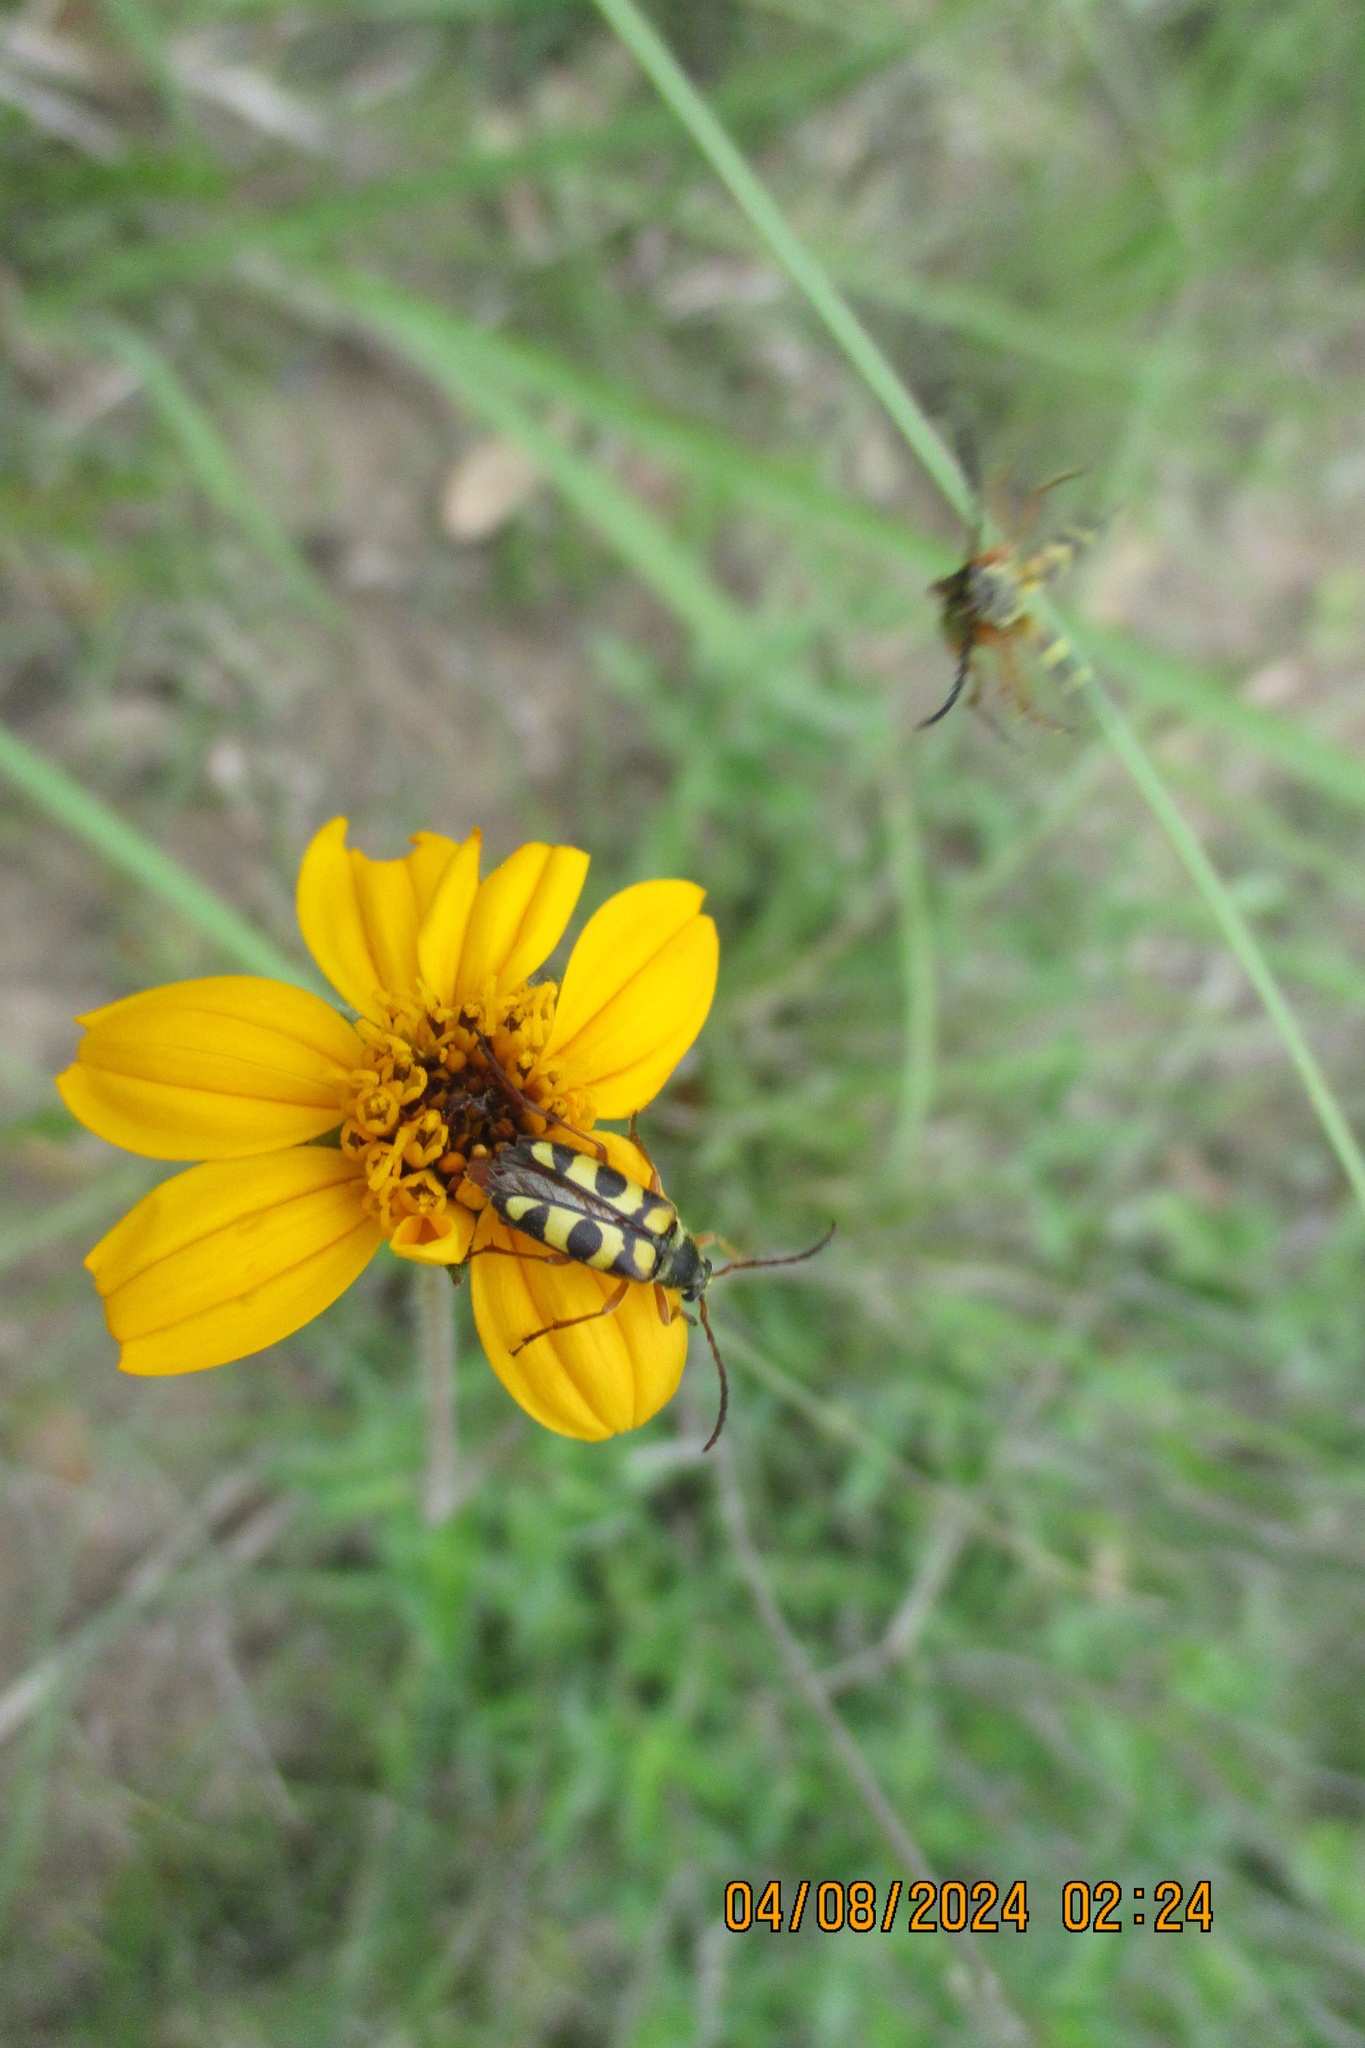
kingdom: Animalia
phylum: Arthropoda
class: Insecta
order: Coleoptera
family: Cerambycidae
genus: Typocerus
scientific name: Typocerus sinuatus
